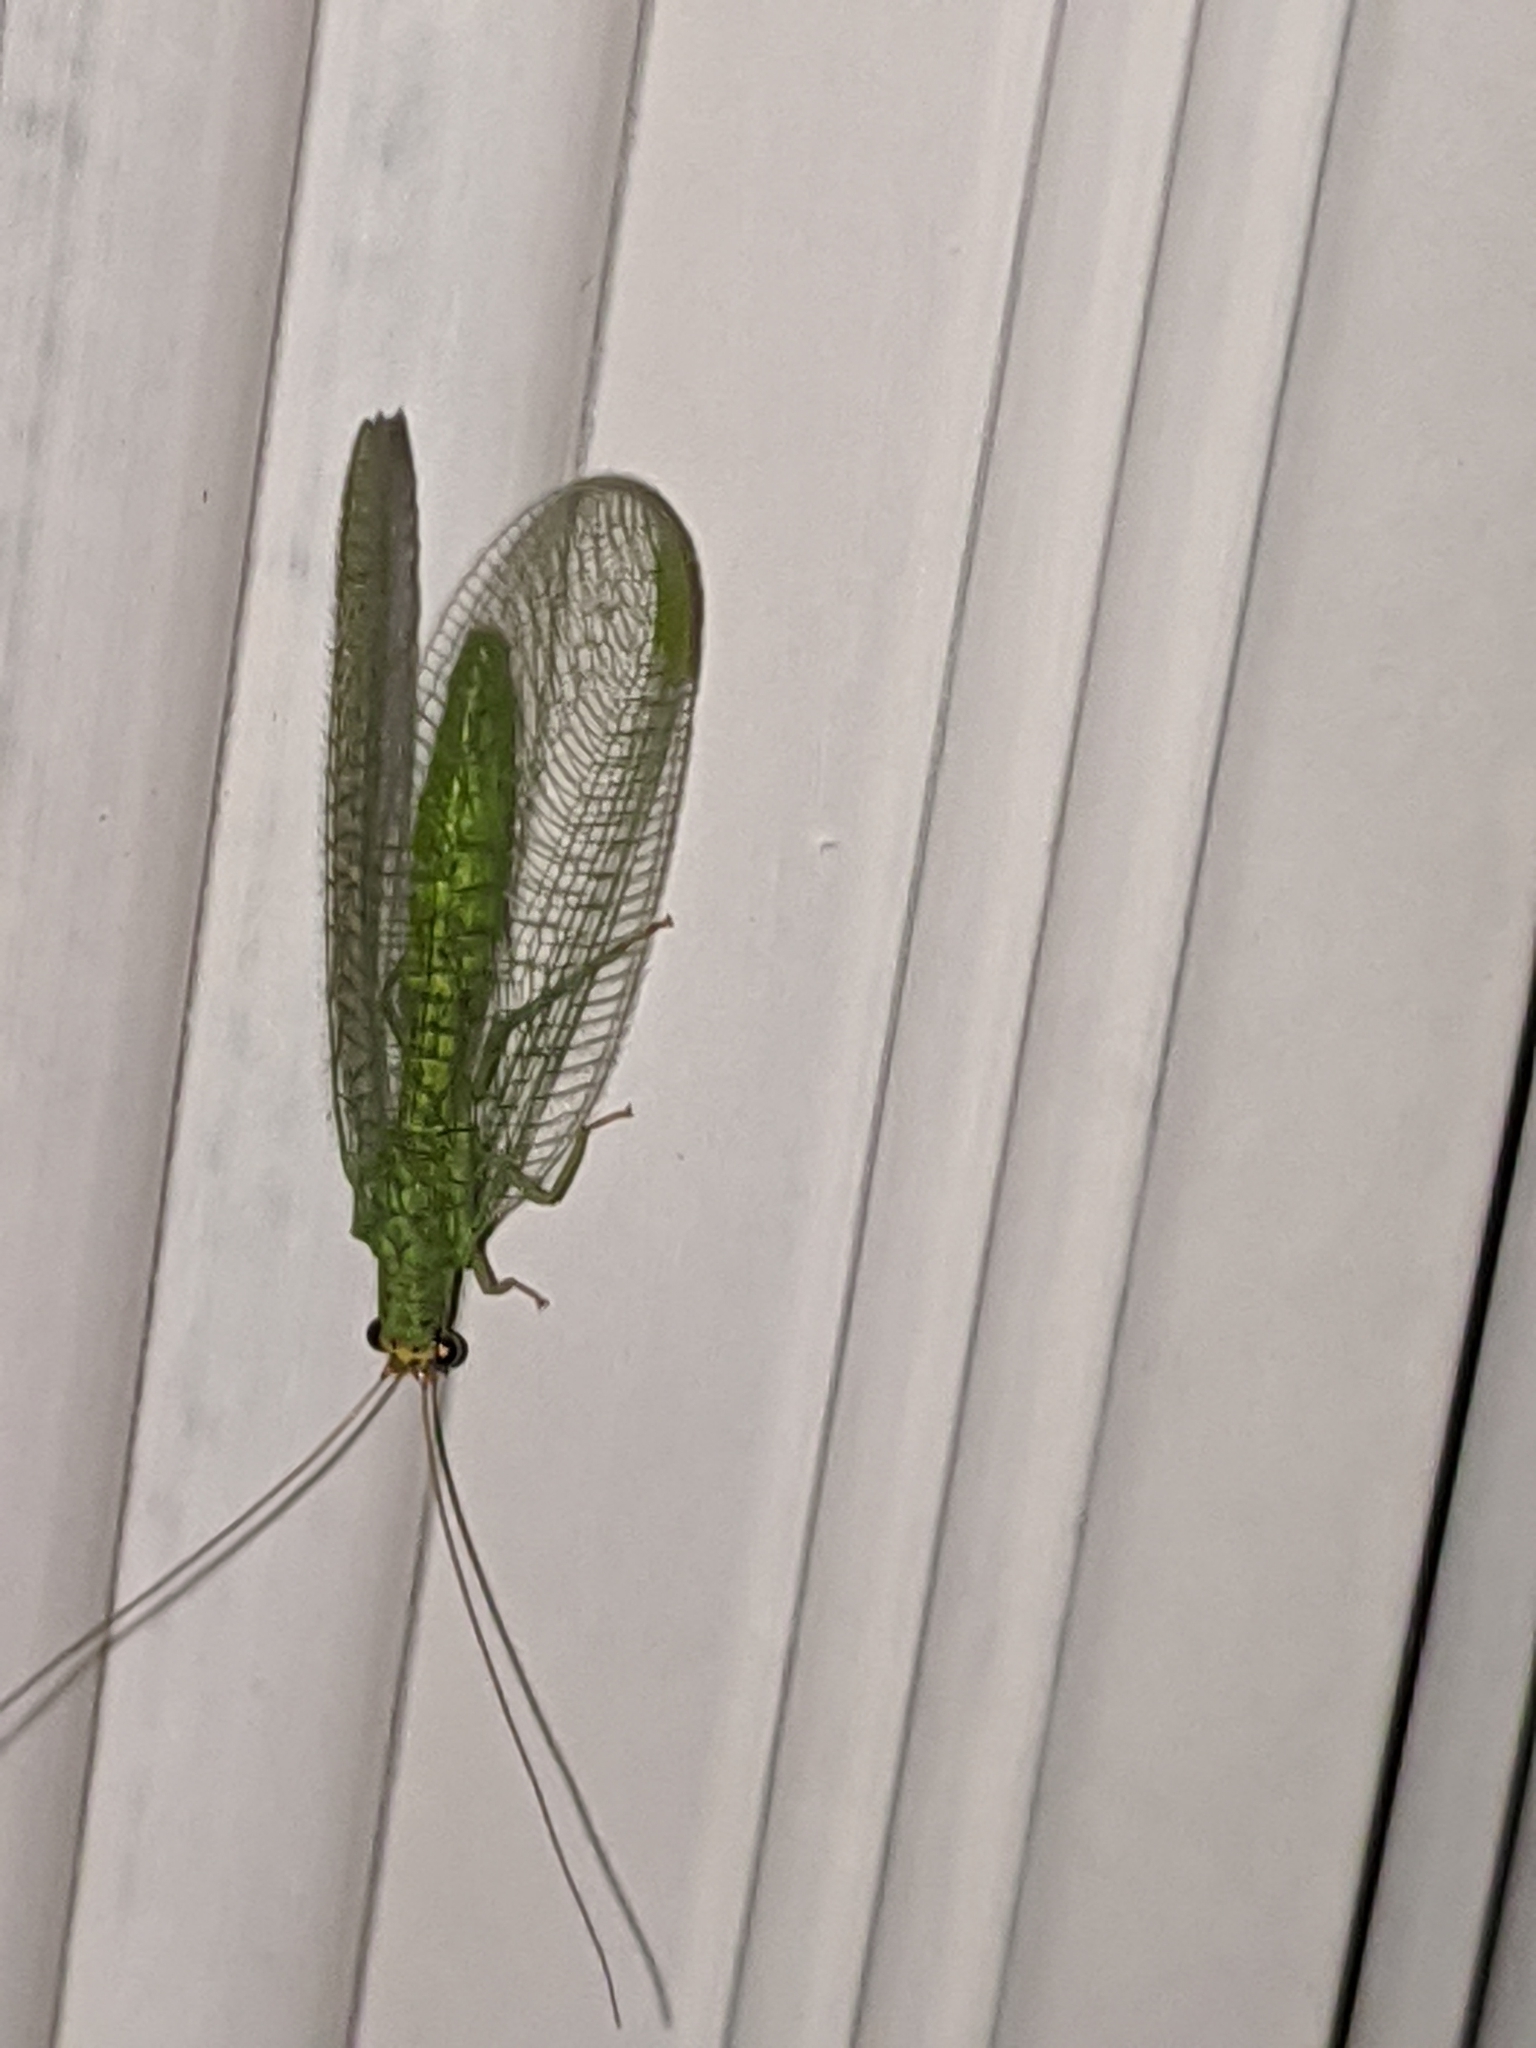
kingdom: Animalia
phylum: Arthropoda
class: Insecta
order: Neuroptera
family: Chrysopidae
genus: Chrysopa
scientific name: Chrysopa oculata
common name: Golden-eyed lacewing
